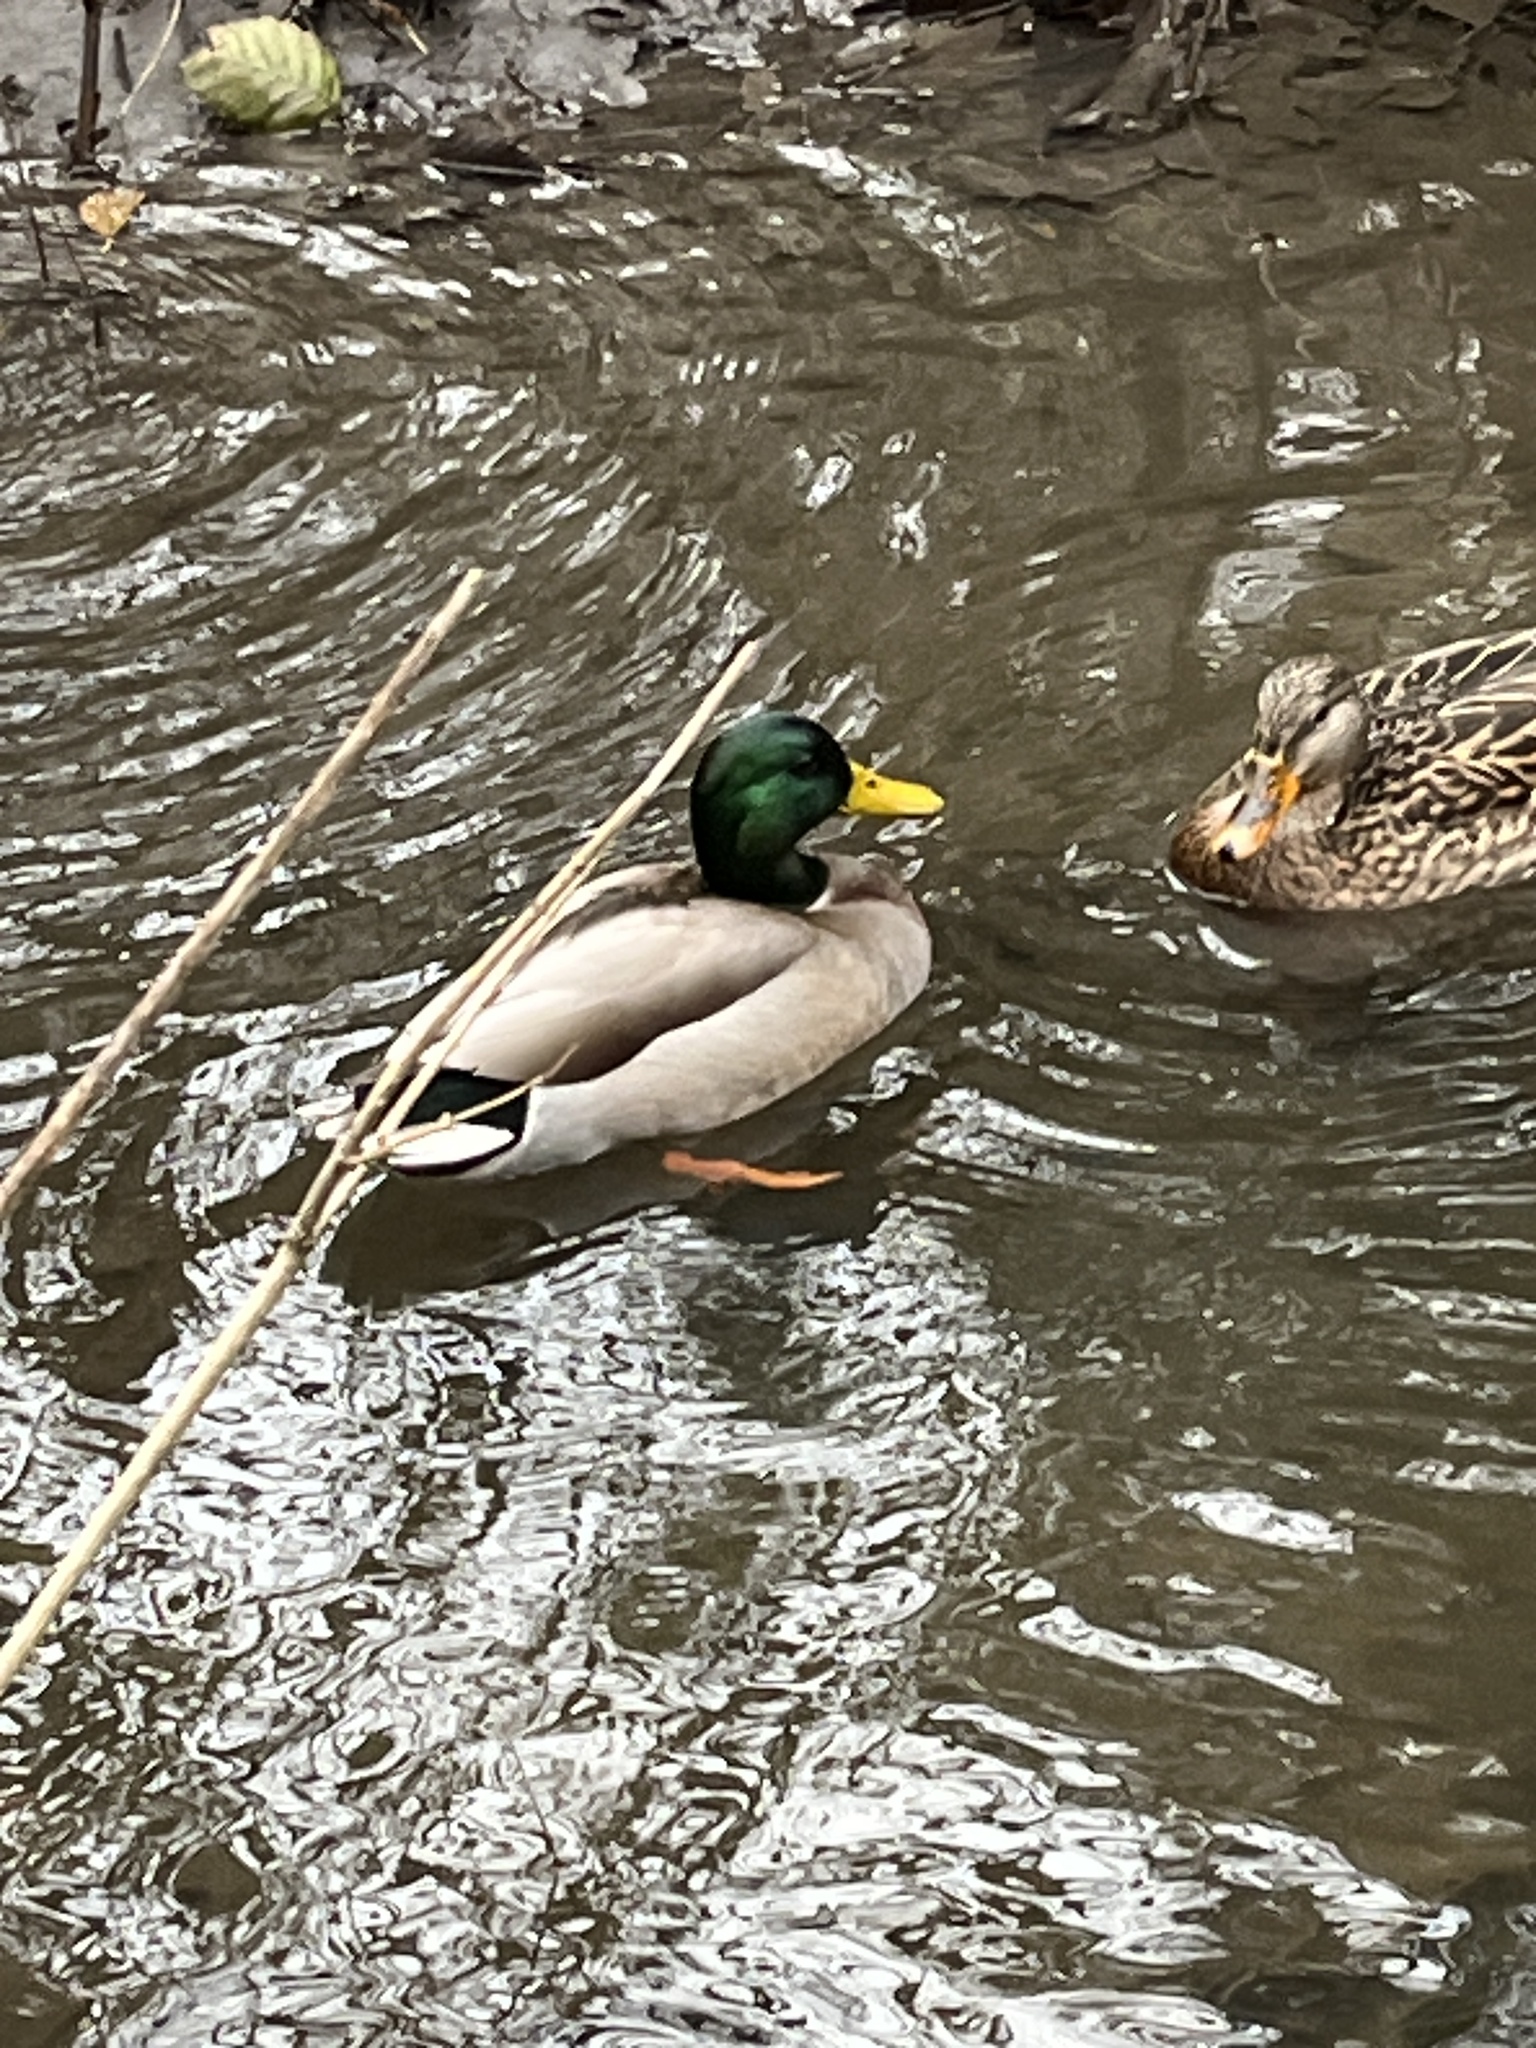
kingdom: Animalia
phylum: Chordata
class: Aves
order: Anseriformes
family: Anatidae
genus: Anas
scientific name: Anas platyrhynchos
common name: Mallard
